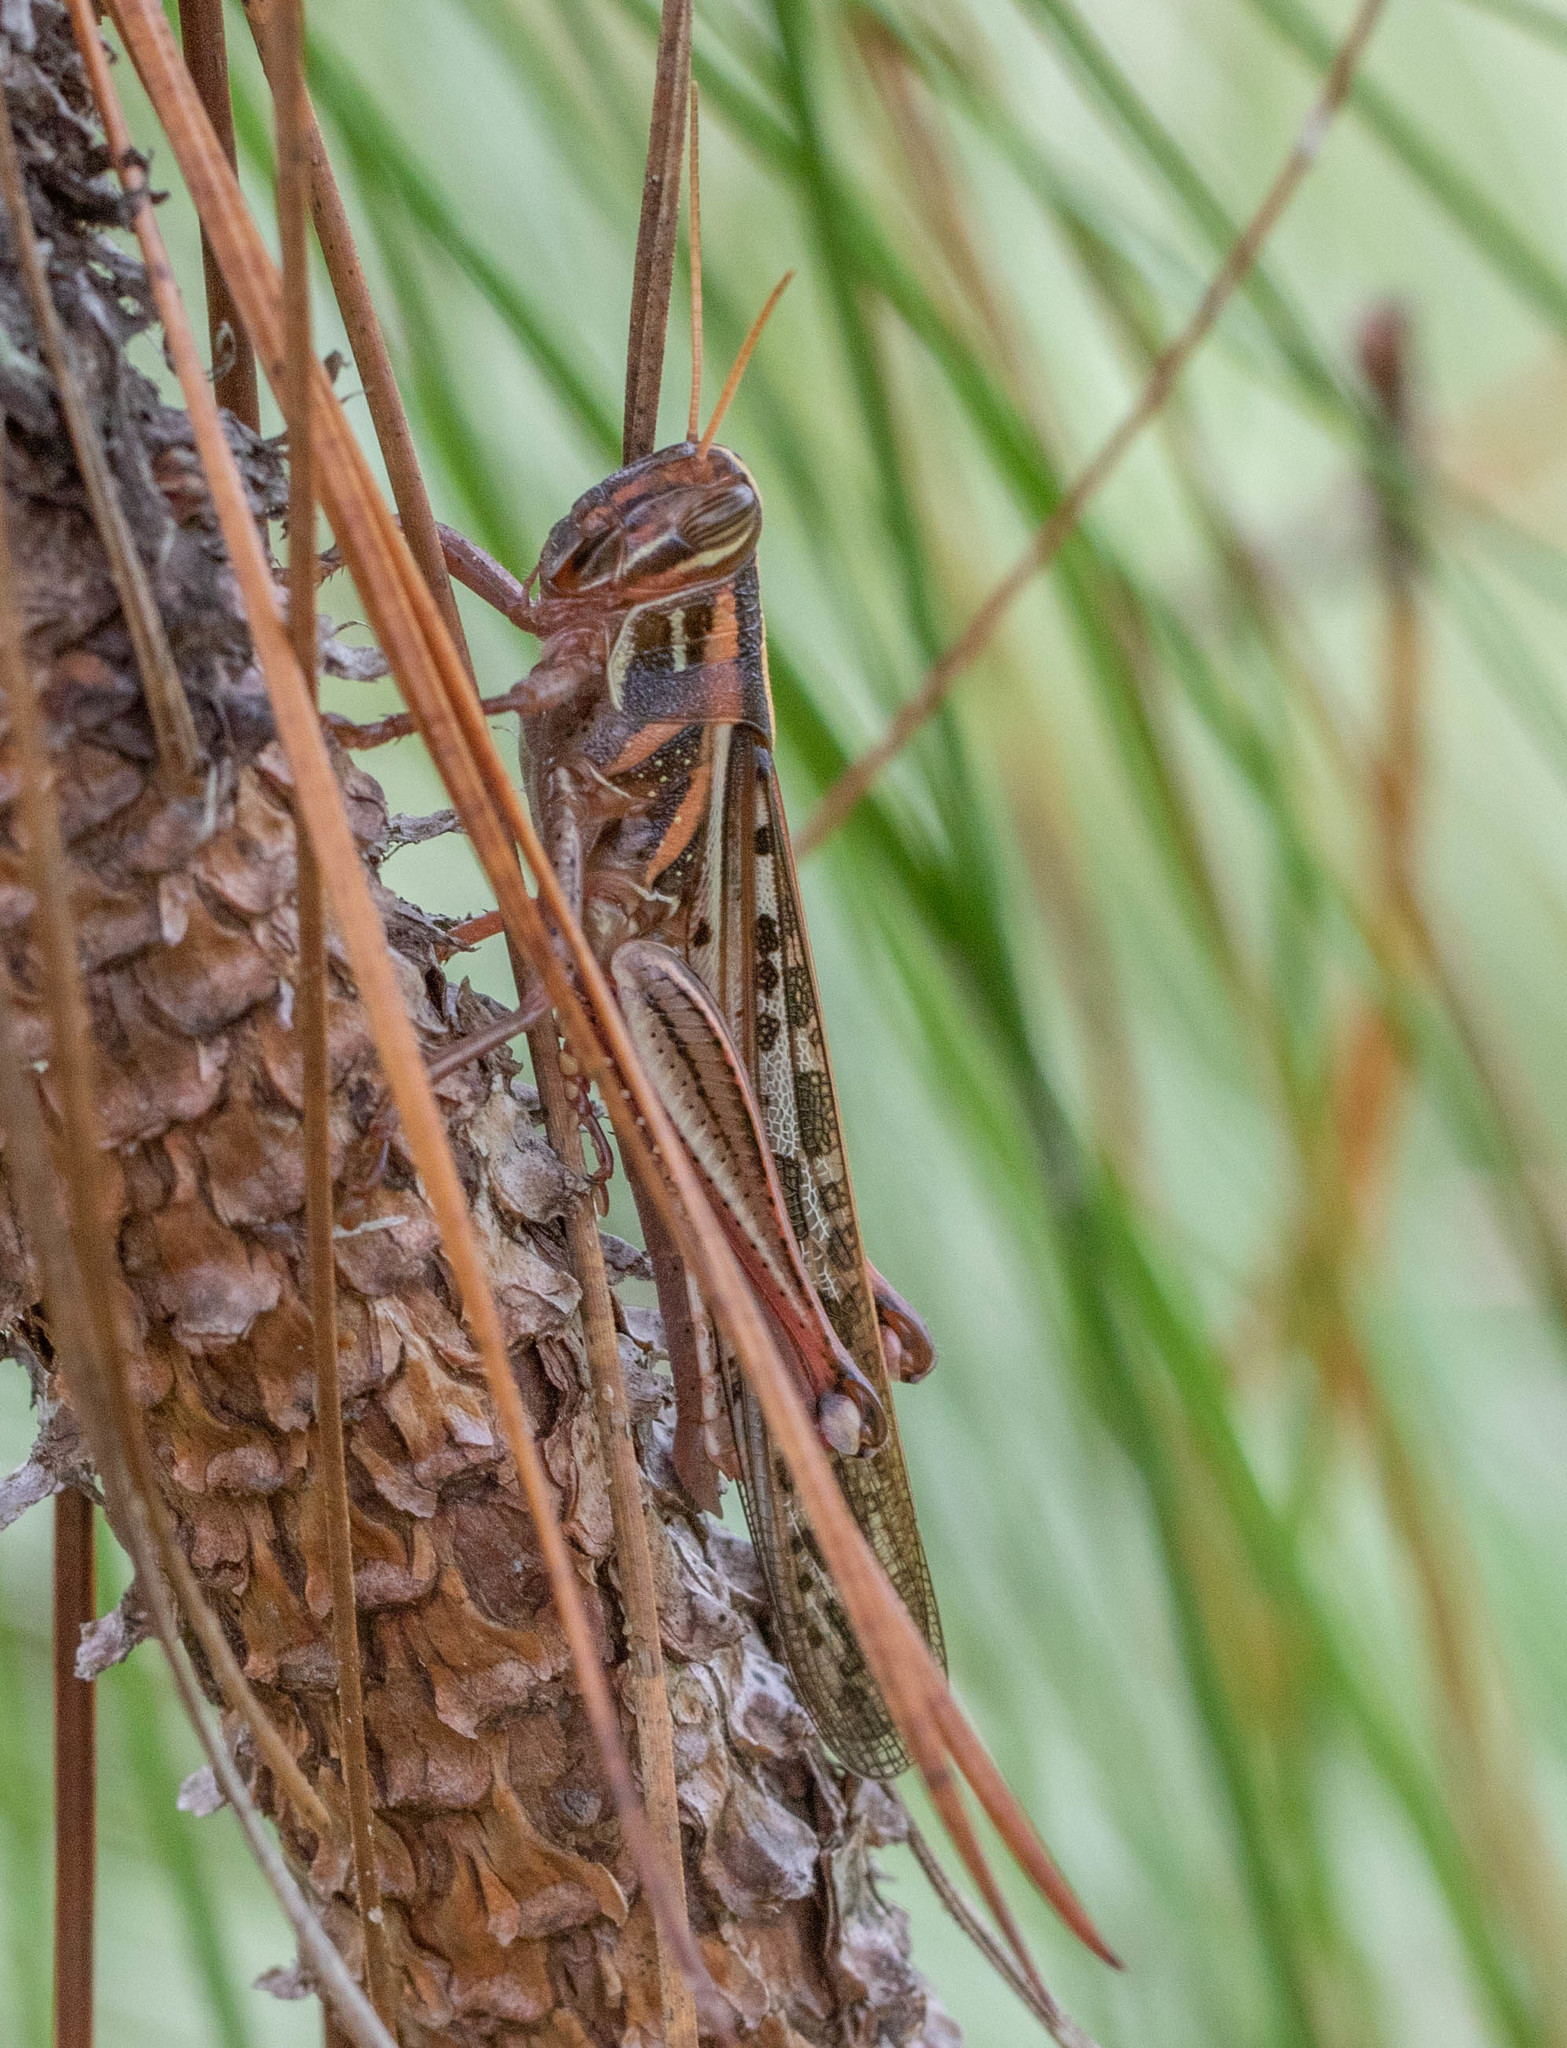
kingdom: Animalia
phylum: Arthropoda
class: Insecta
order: Orthoptera
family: Acrididae
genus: Schistocerca
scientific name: Schistocerca americana
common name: American bird locust
